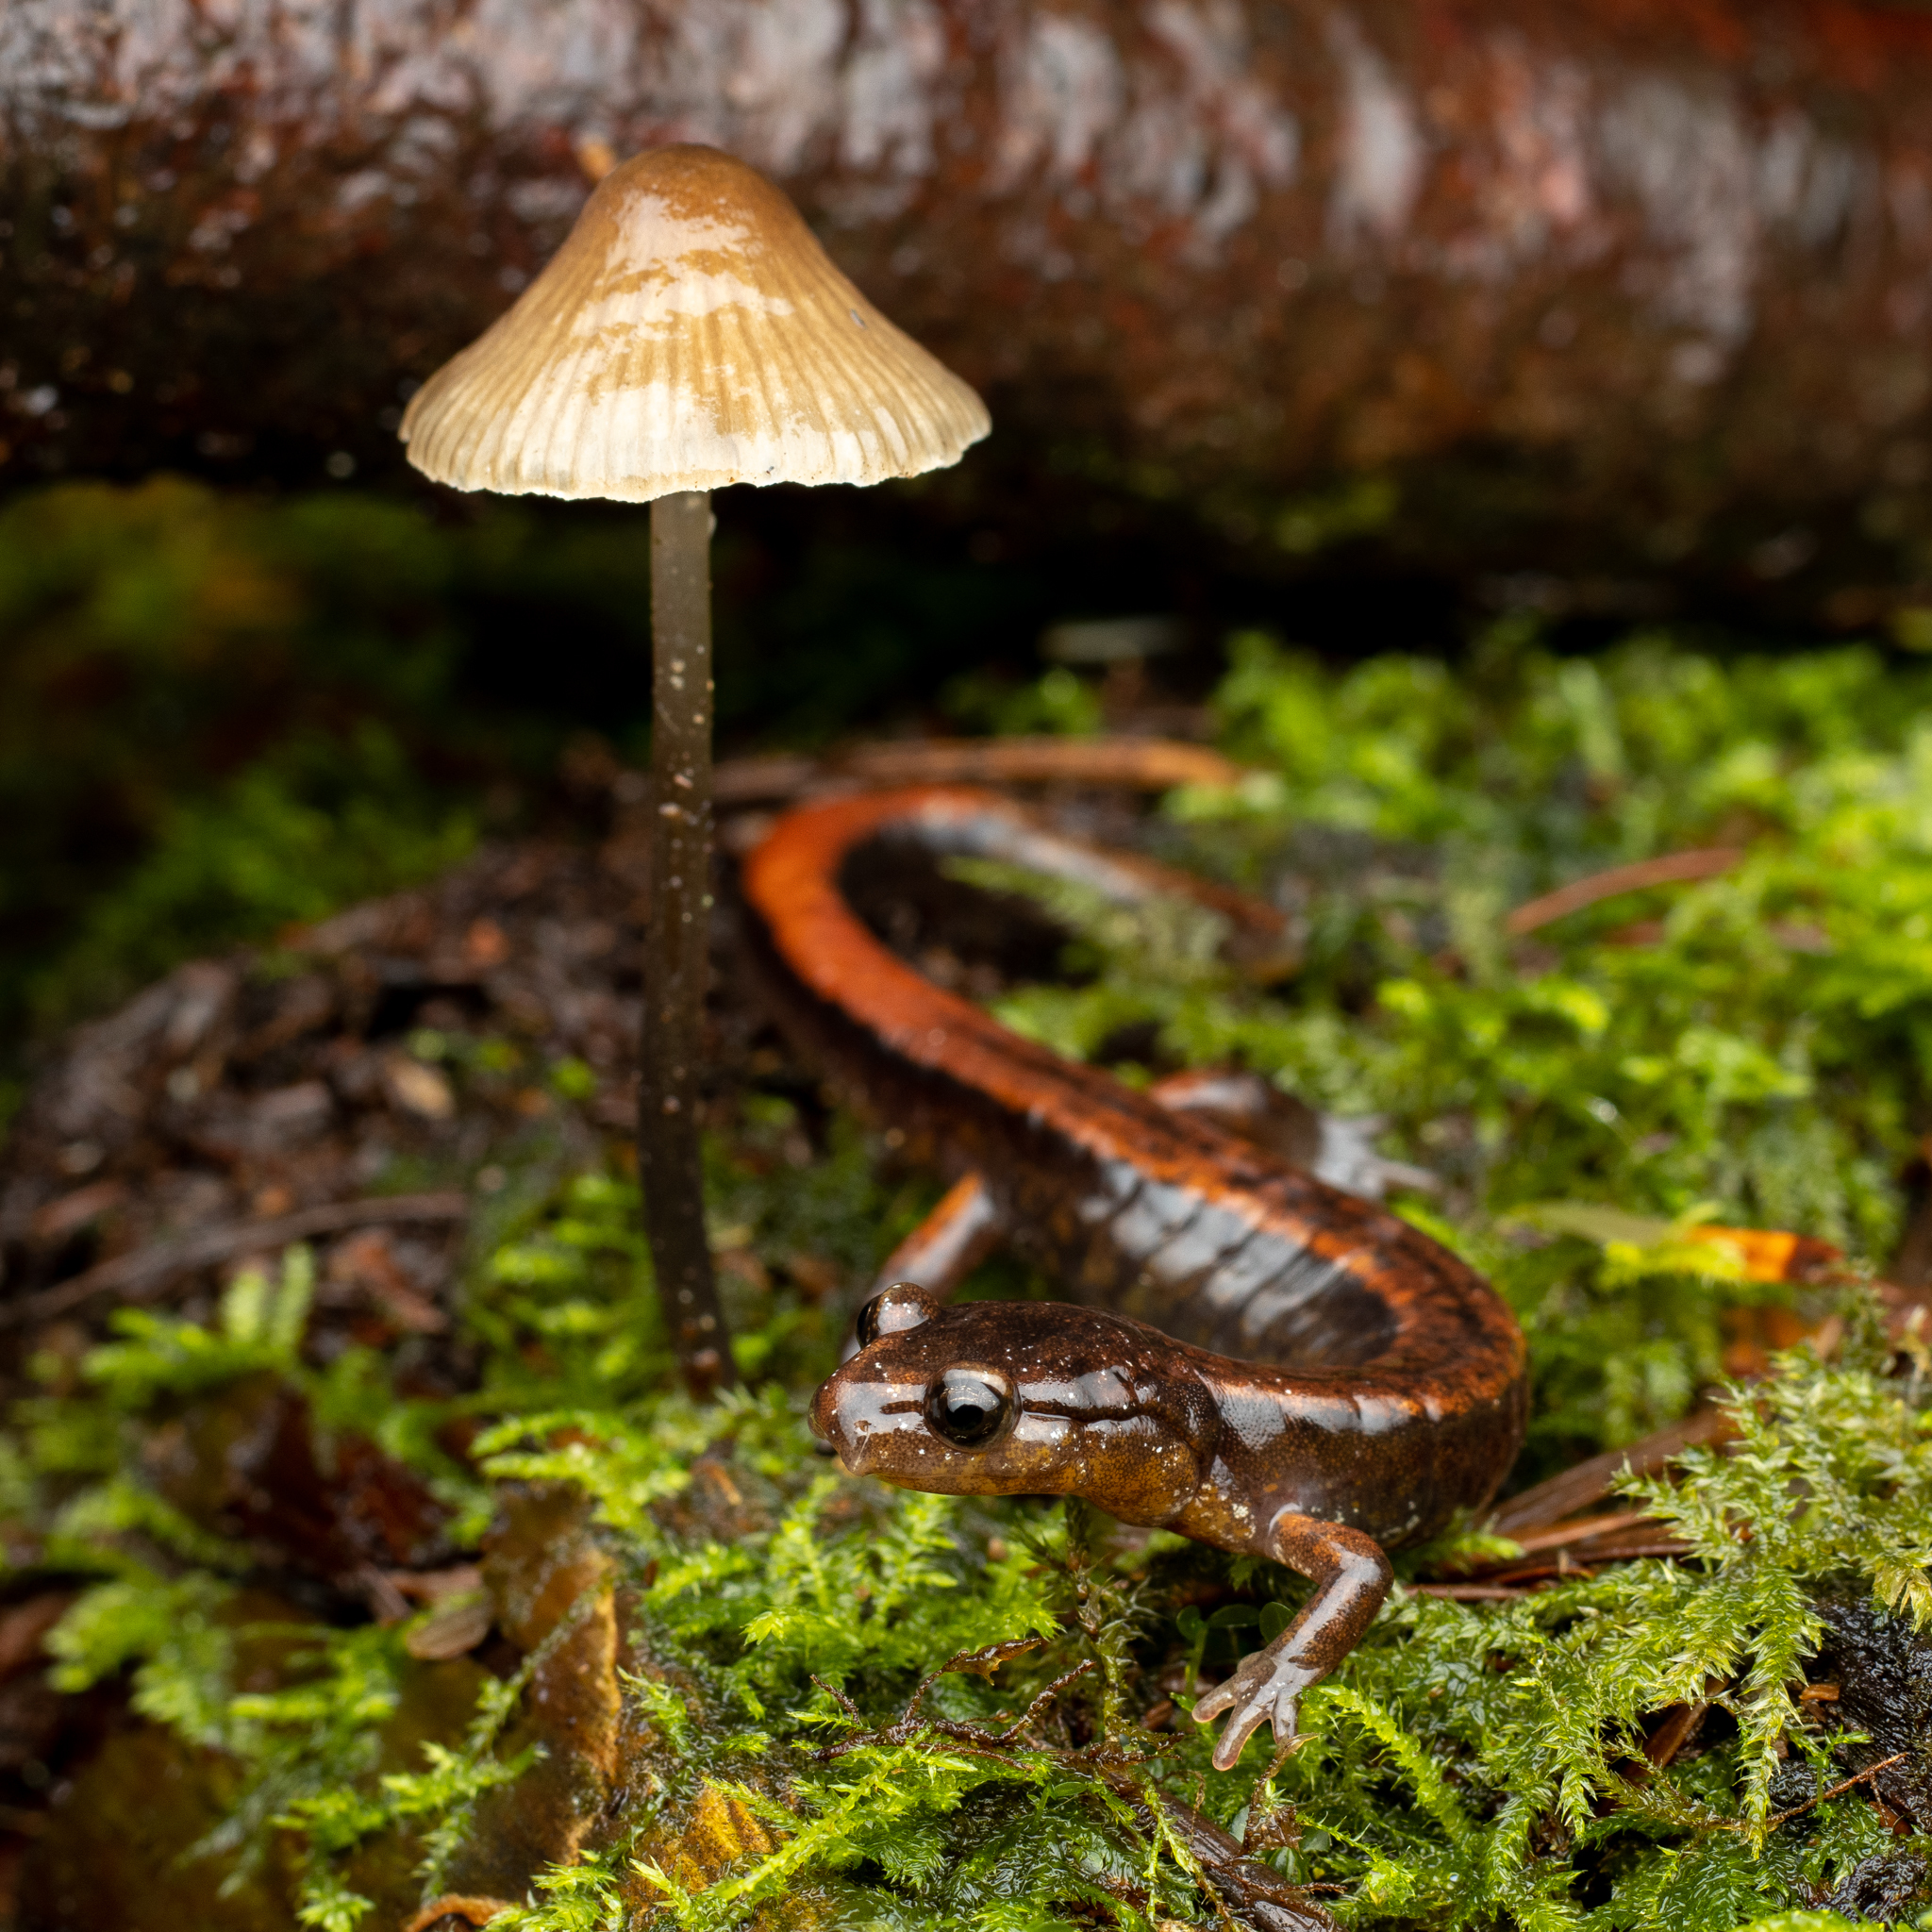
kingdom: Animalia
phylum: Chordata
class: Amphibia
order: Caudata
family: Plethodontidae
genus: Plethodon
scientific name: Plethodon vehiculum
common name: Western red-backed salamander
